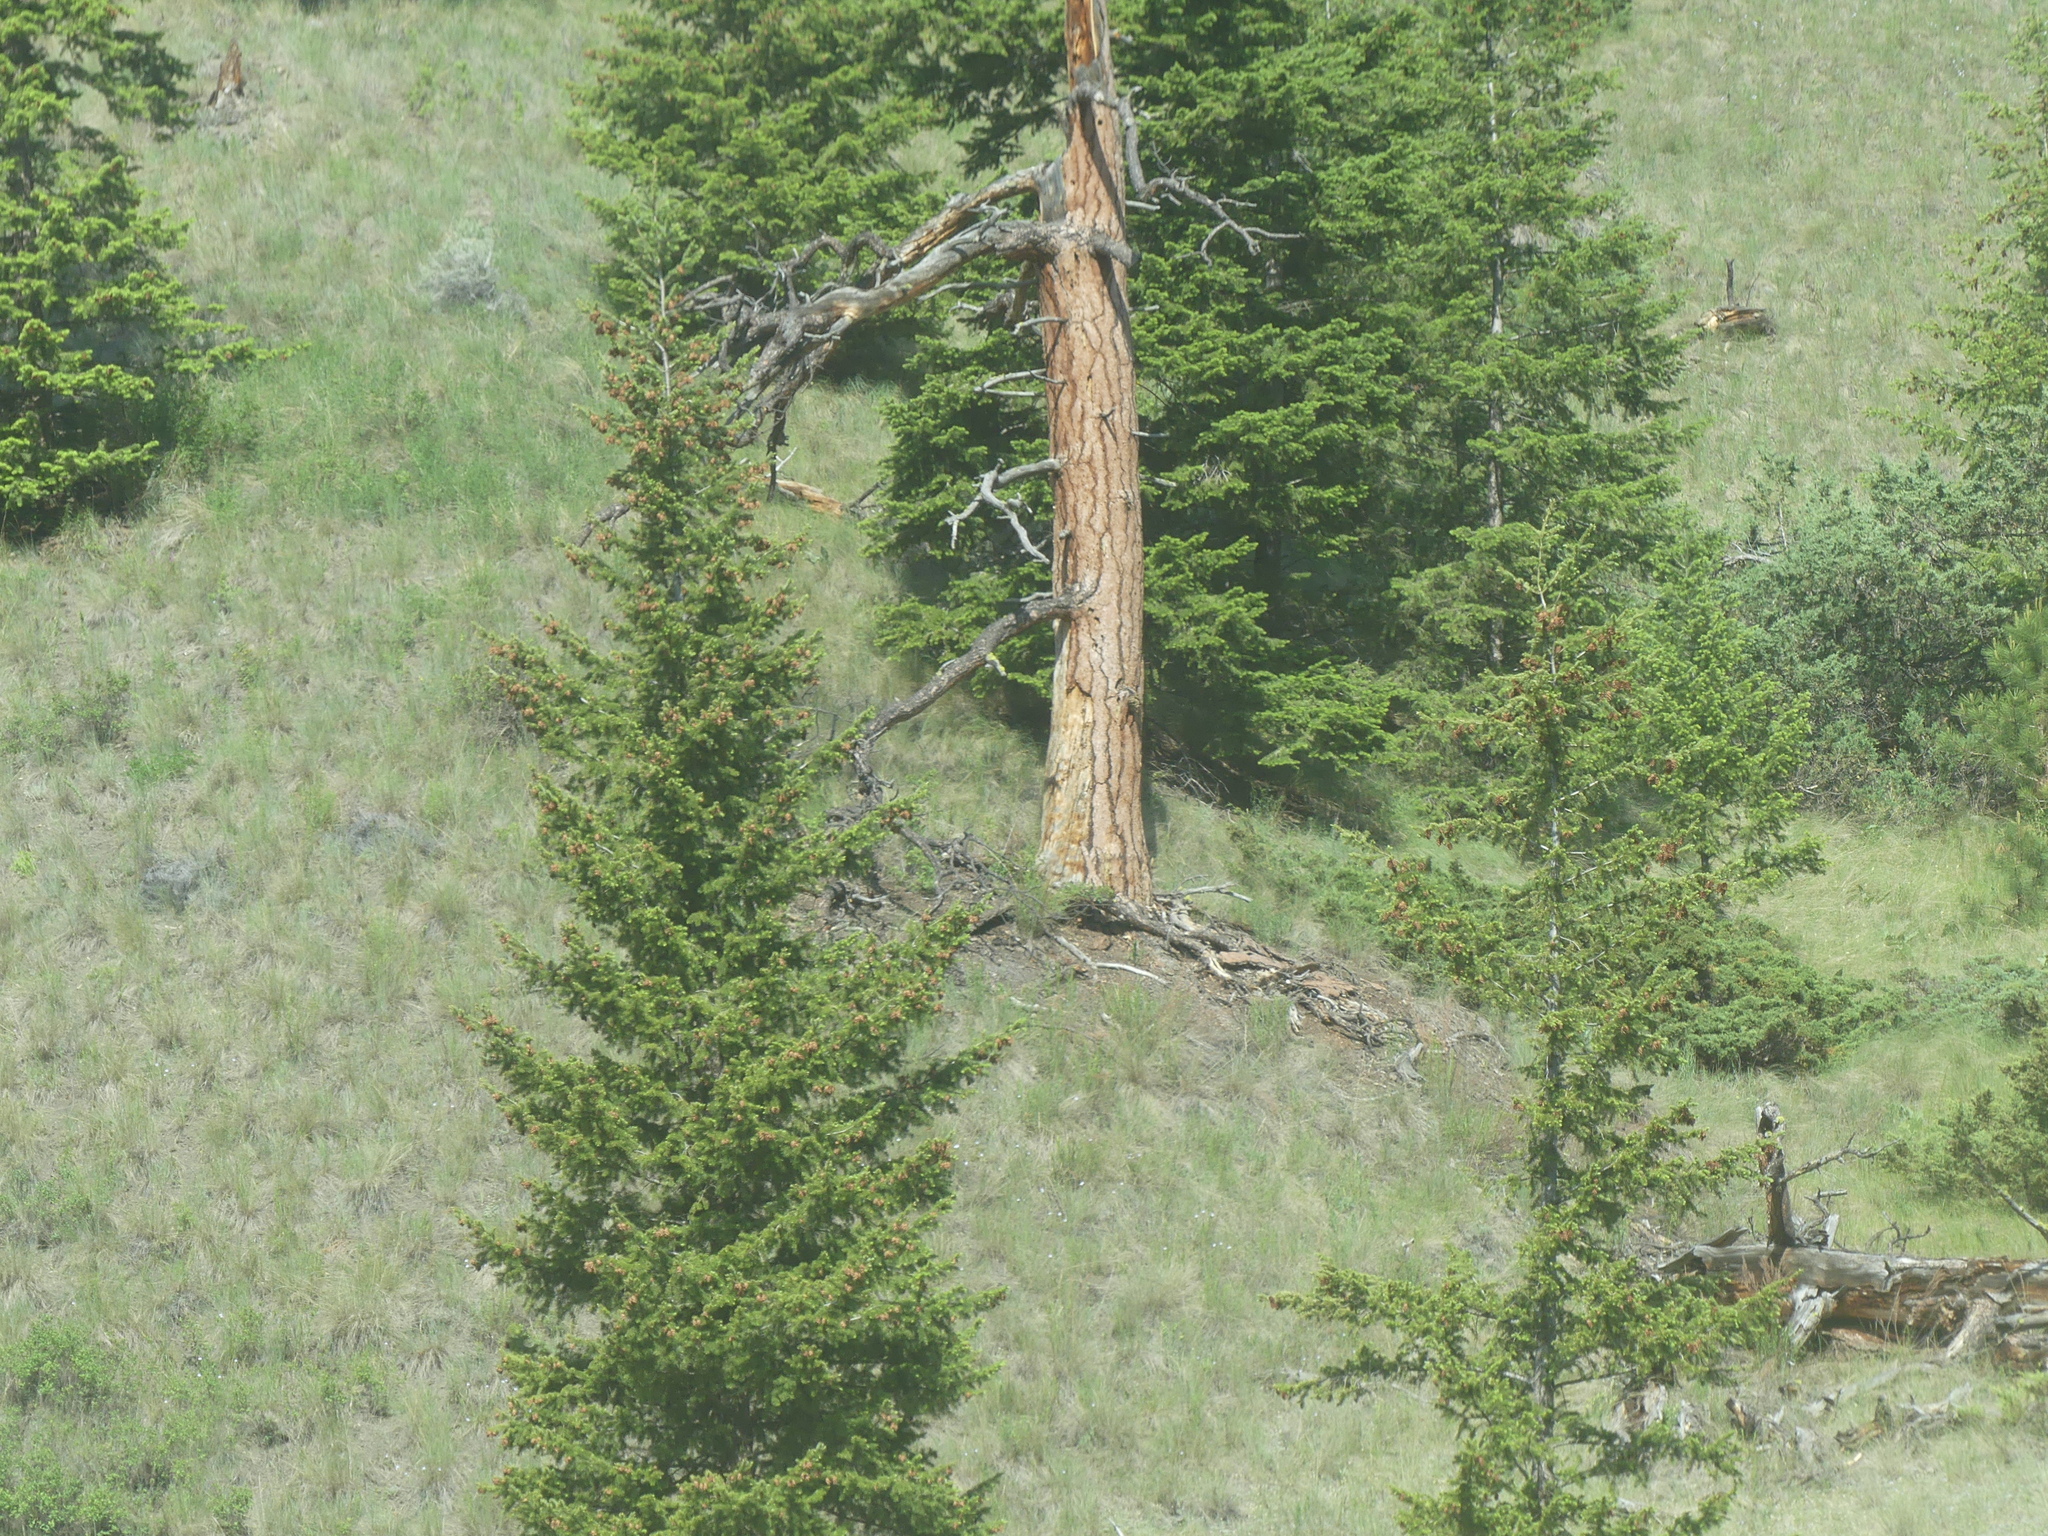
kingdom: Plantae
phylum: Tracheophyta
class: Pinopsida
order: Pinales
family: Pinaceae
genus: Pinus
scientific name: Pinus ponderosa
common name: Western yellow-pine
